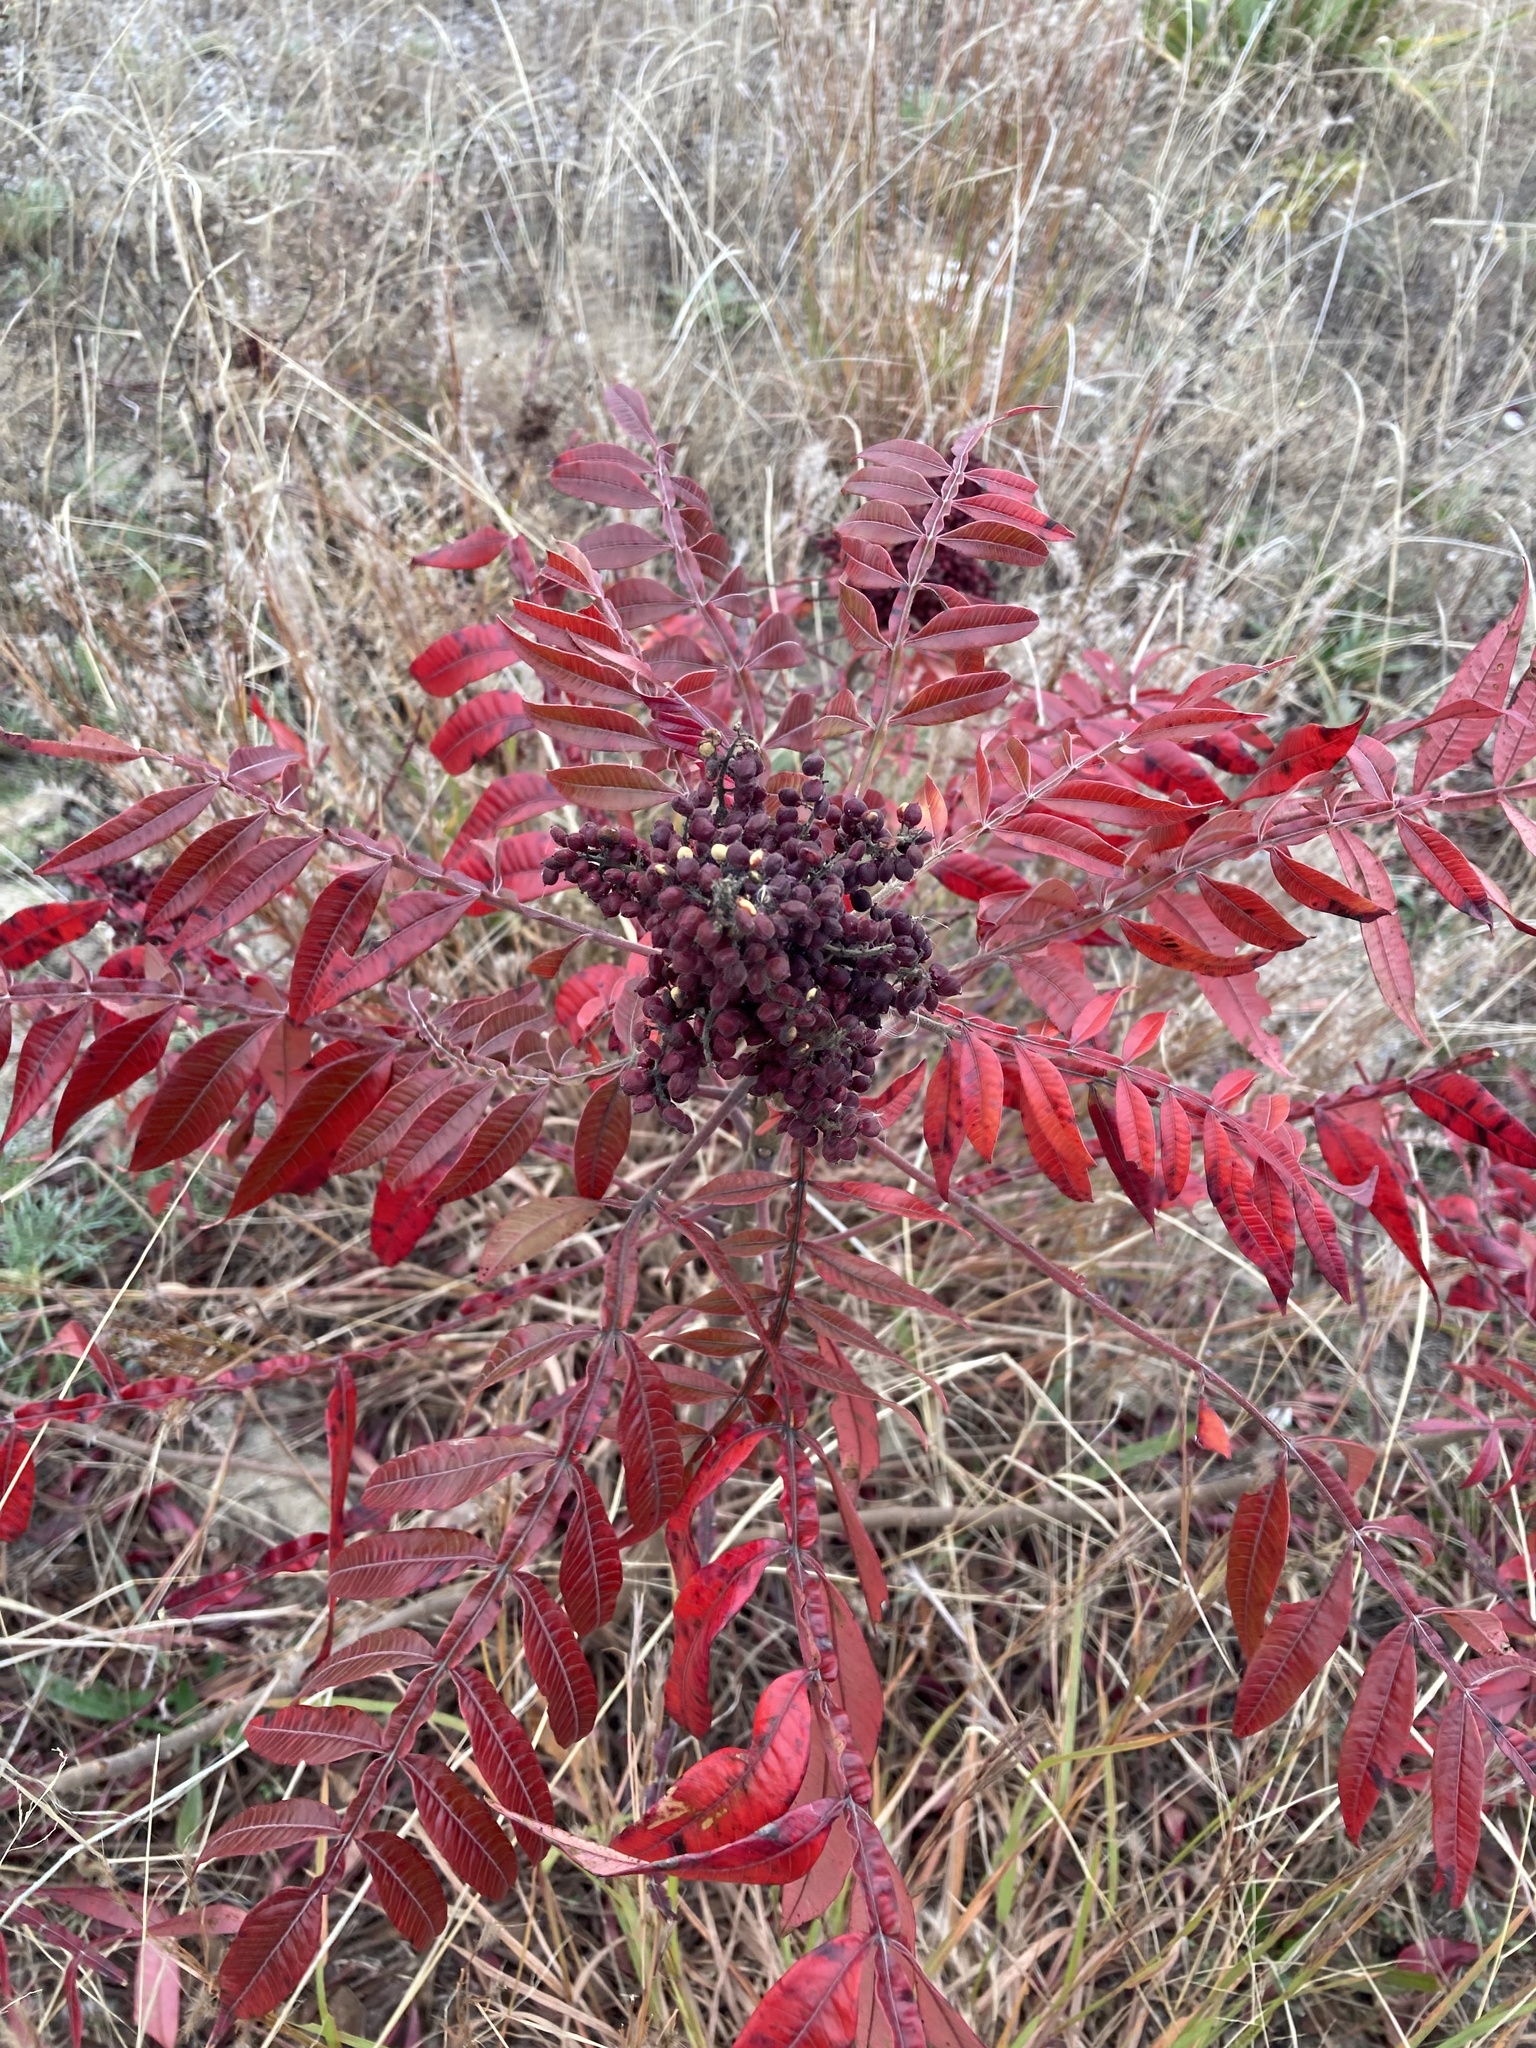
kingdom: Plantae
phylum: Tracheophyta
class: Magnoliopsida
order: Sapindales
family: Anacardiaceae
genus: Rhus
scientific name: Rhus copallina
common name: Shining sumac
